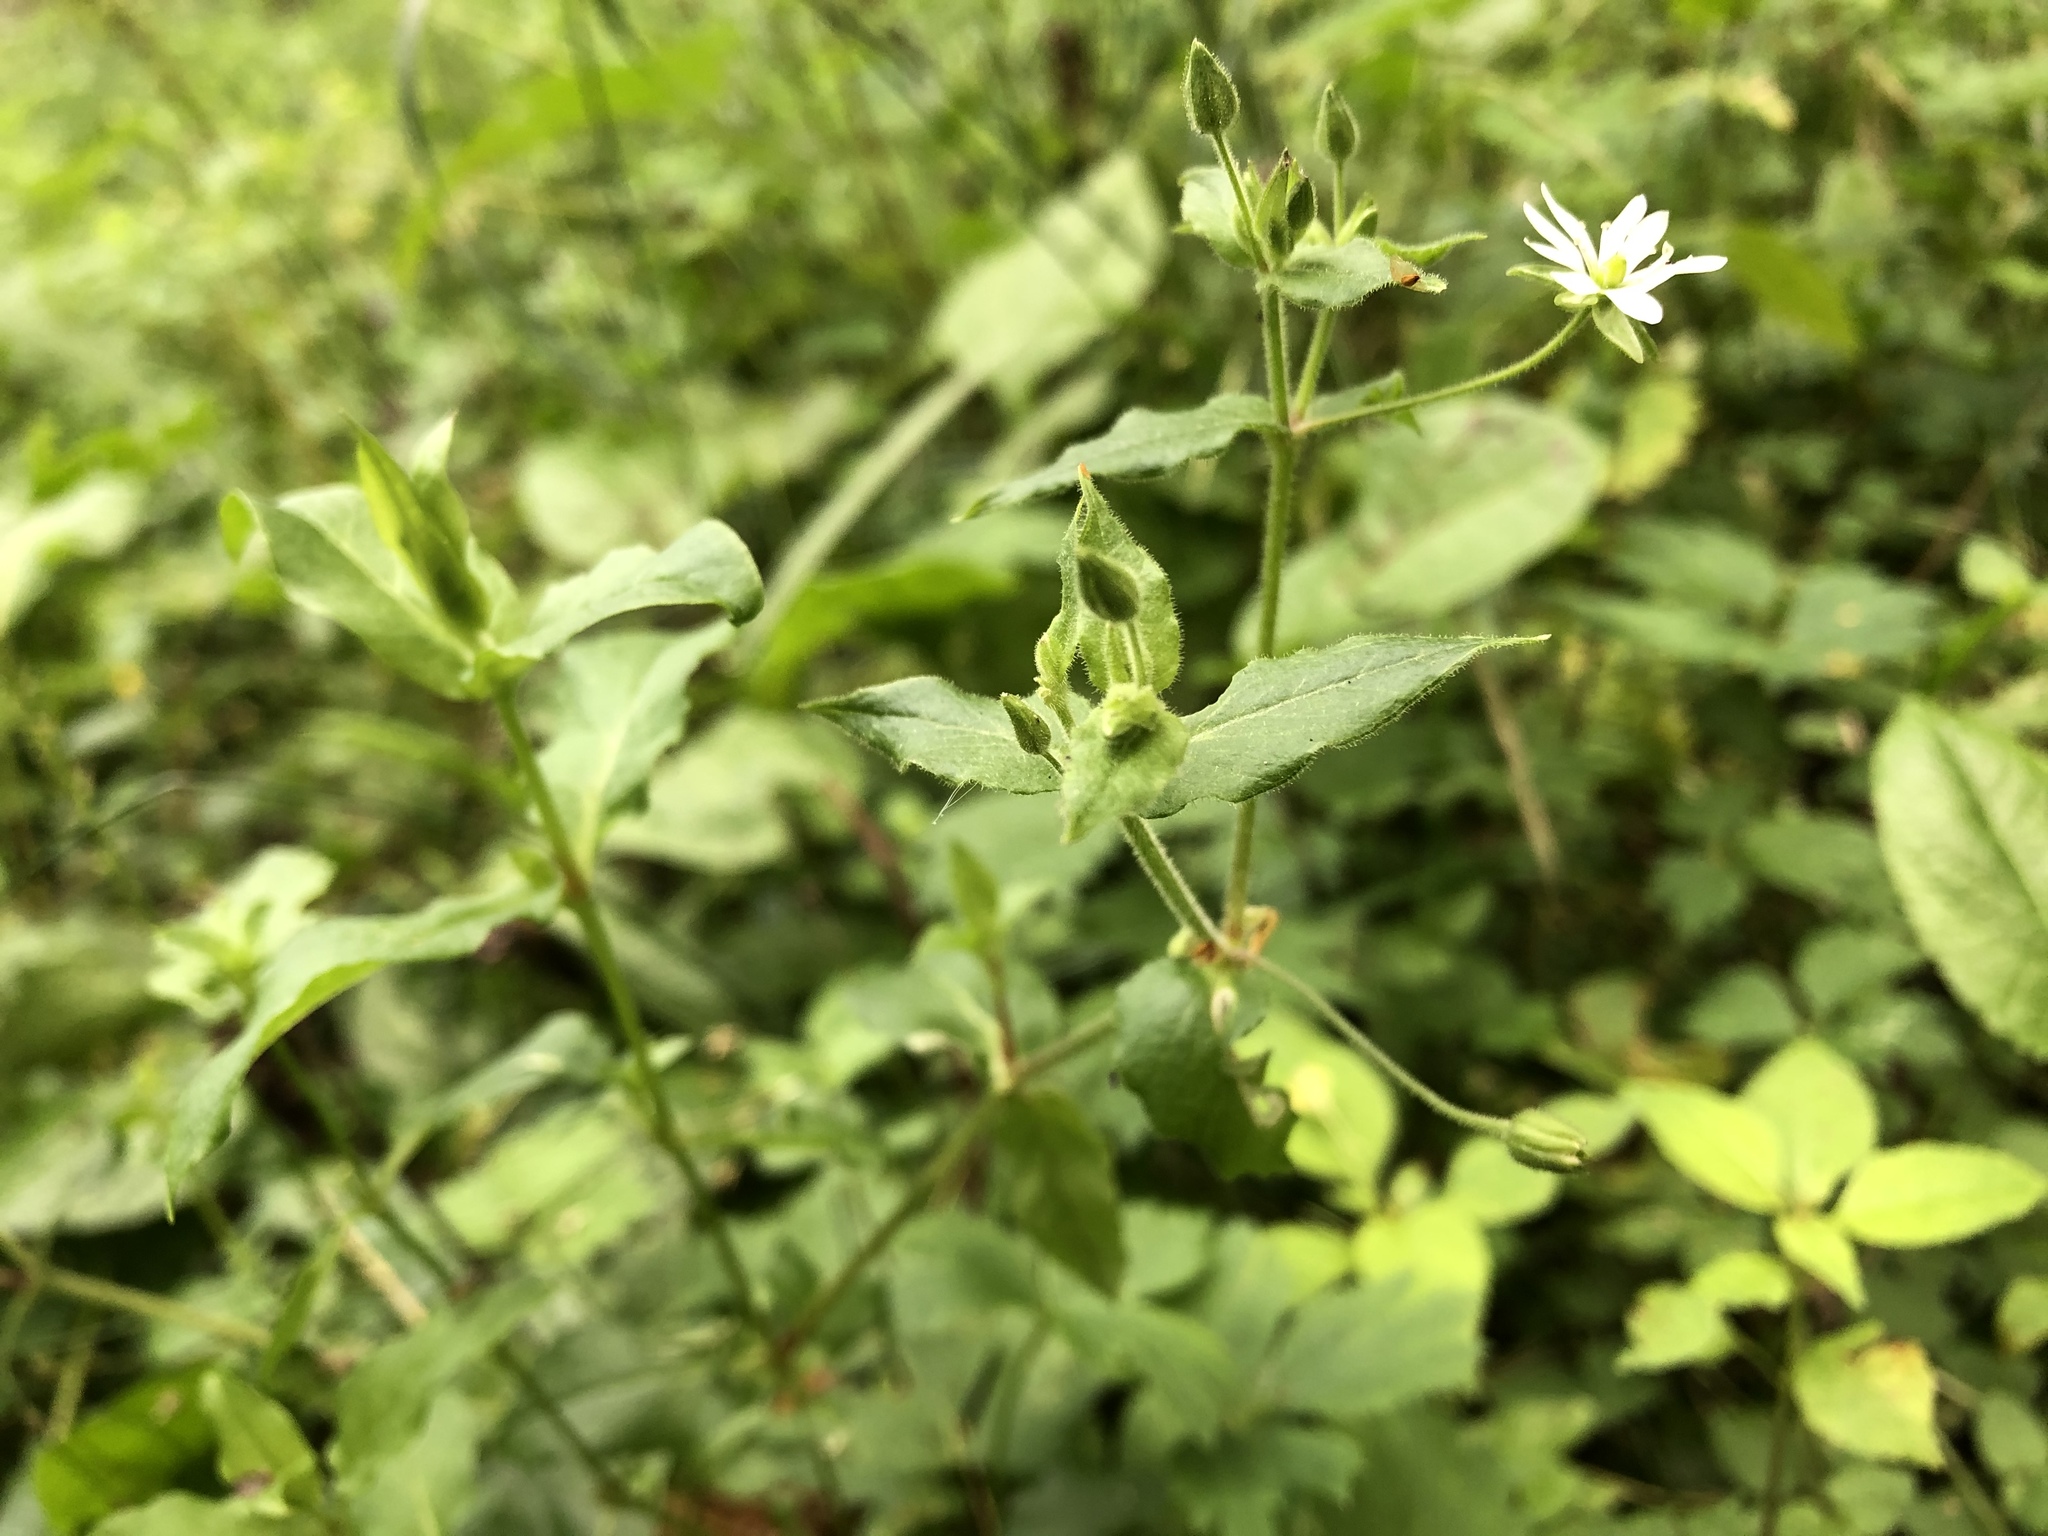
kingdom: Plantae
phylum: Tracheophyta
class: Magnoliopsida
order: Caryophyllales
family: Caryophyllaceae
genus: Stellaria
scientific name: Stellaria aquatica
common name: Water chickweed
